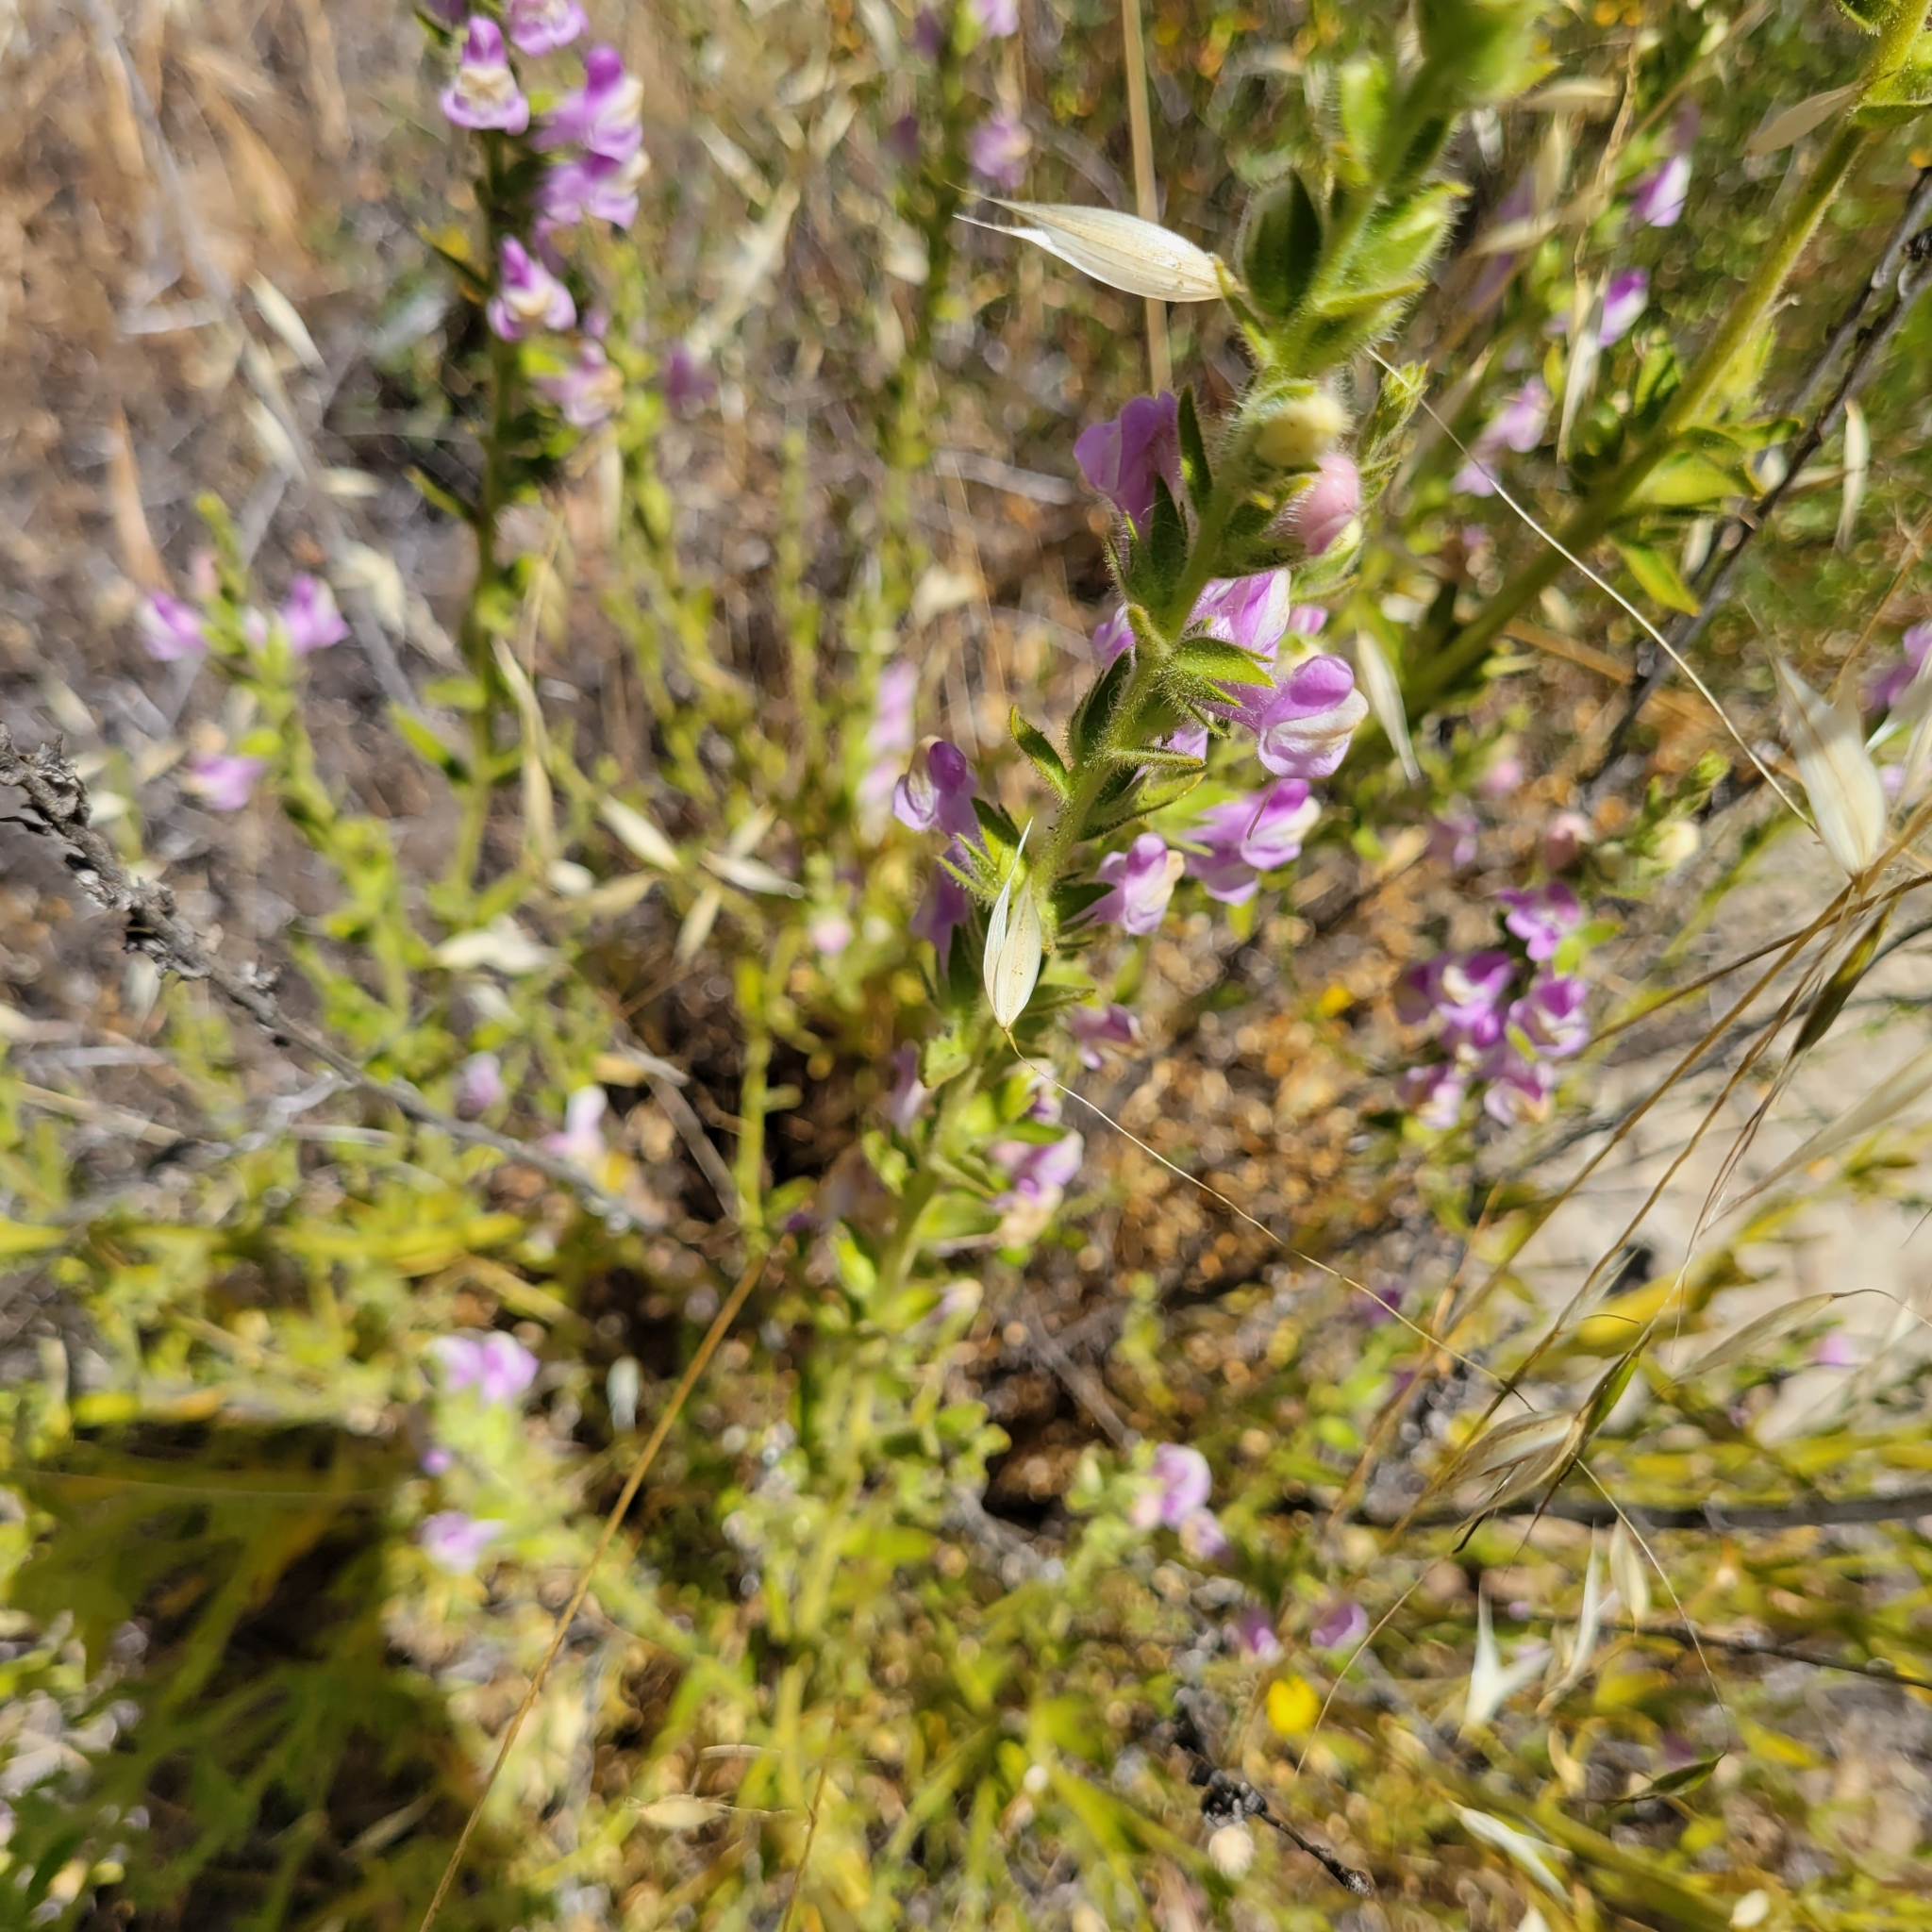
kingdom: Plantae
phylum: Tracheophyta
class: Magnoliopsida
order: Lamiales
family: Plantaginaceae
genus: Sairocarpus
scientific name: Sairocarpus multiflorus
